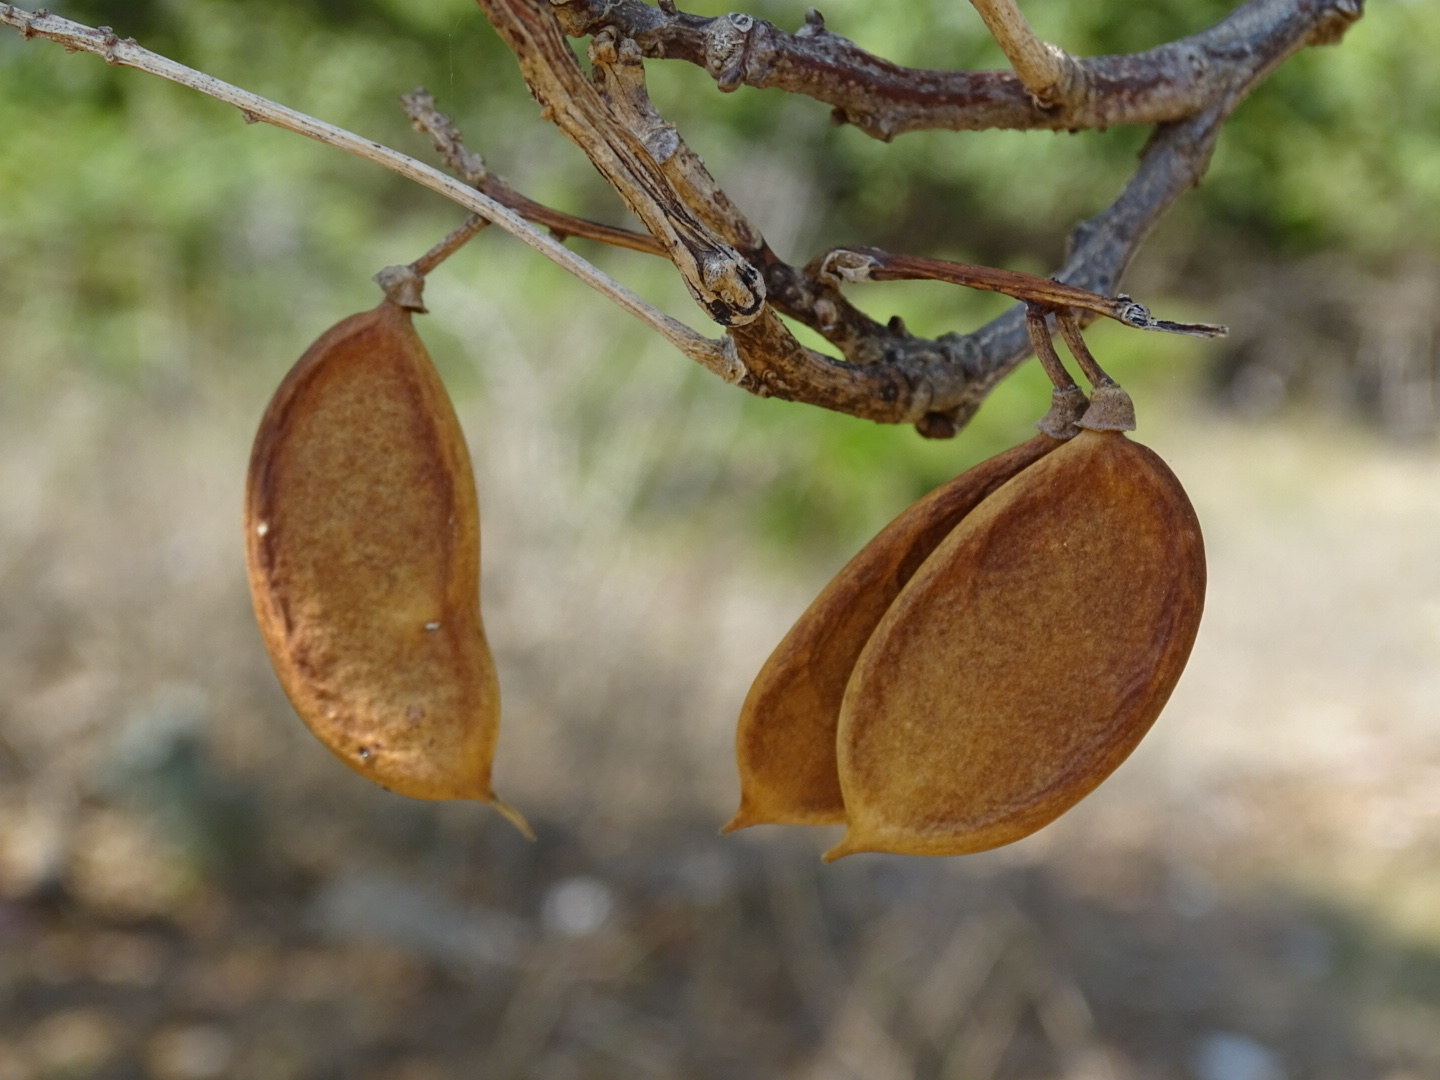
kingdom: Plantae
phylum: Tracheophyta
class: Magnoliopsida
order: Fabales
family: Fabaceae
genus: Pongamia
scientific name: Pongamia pinnata
